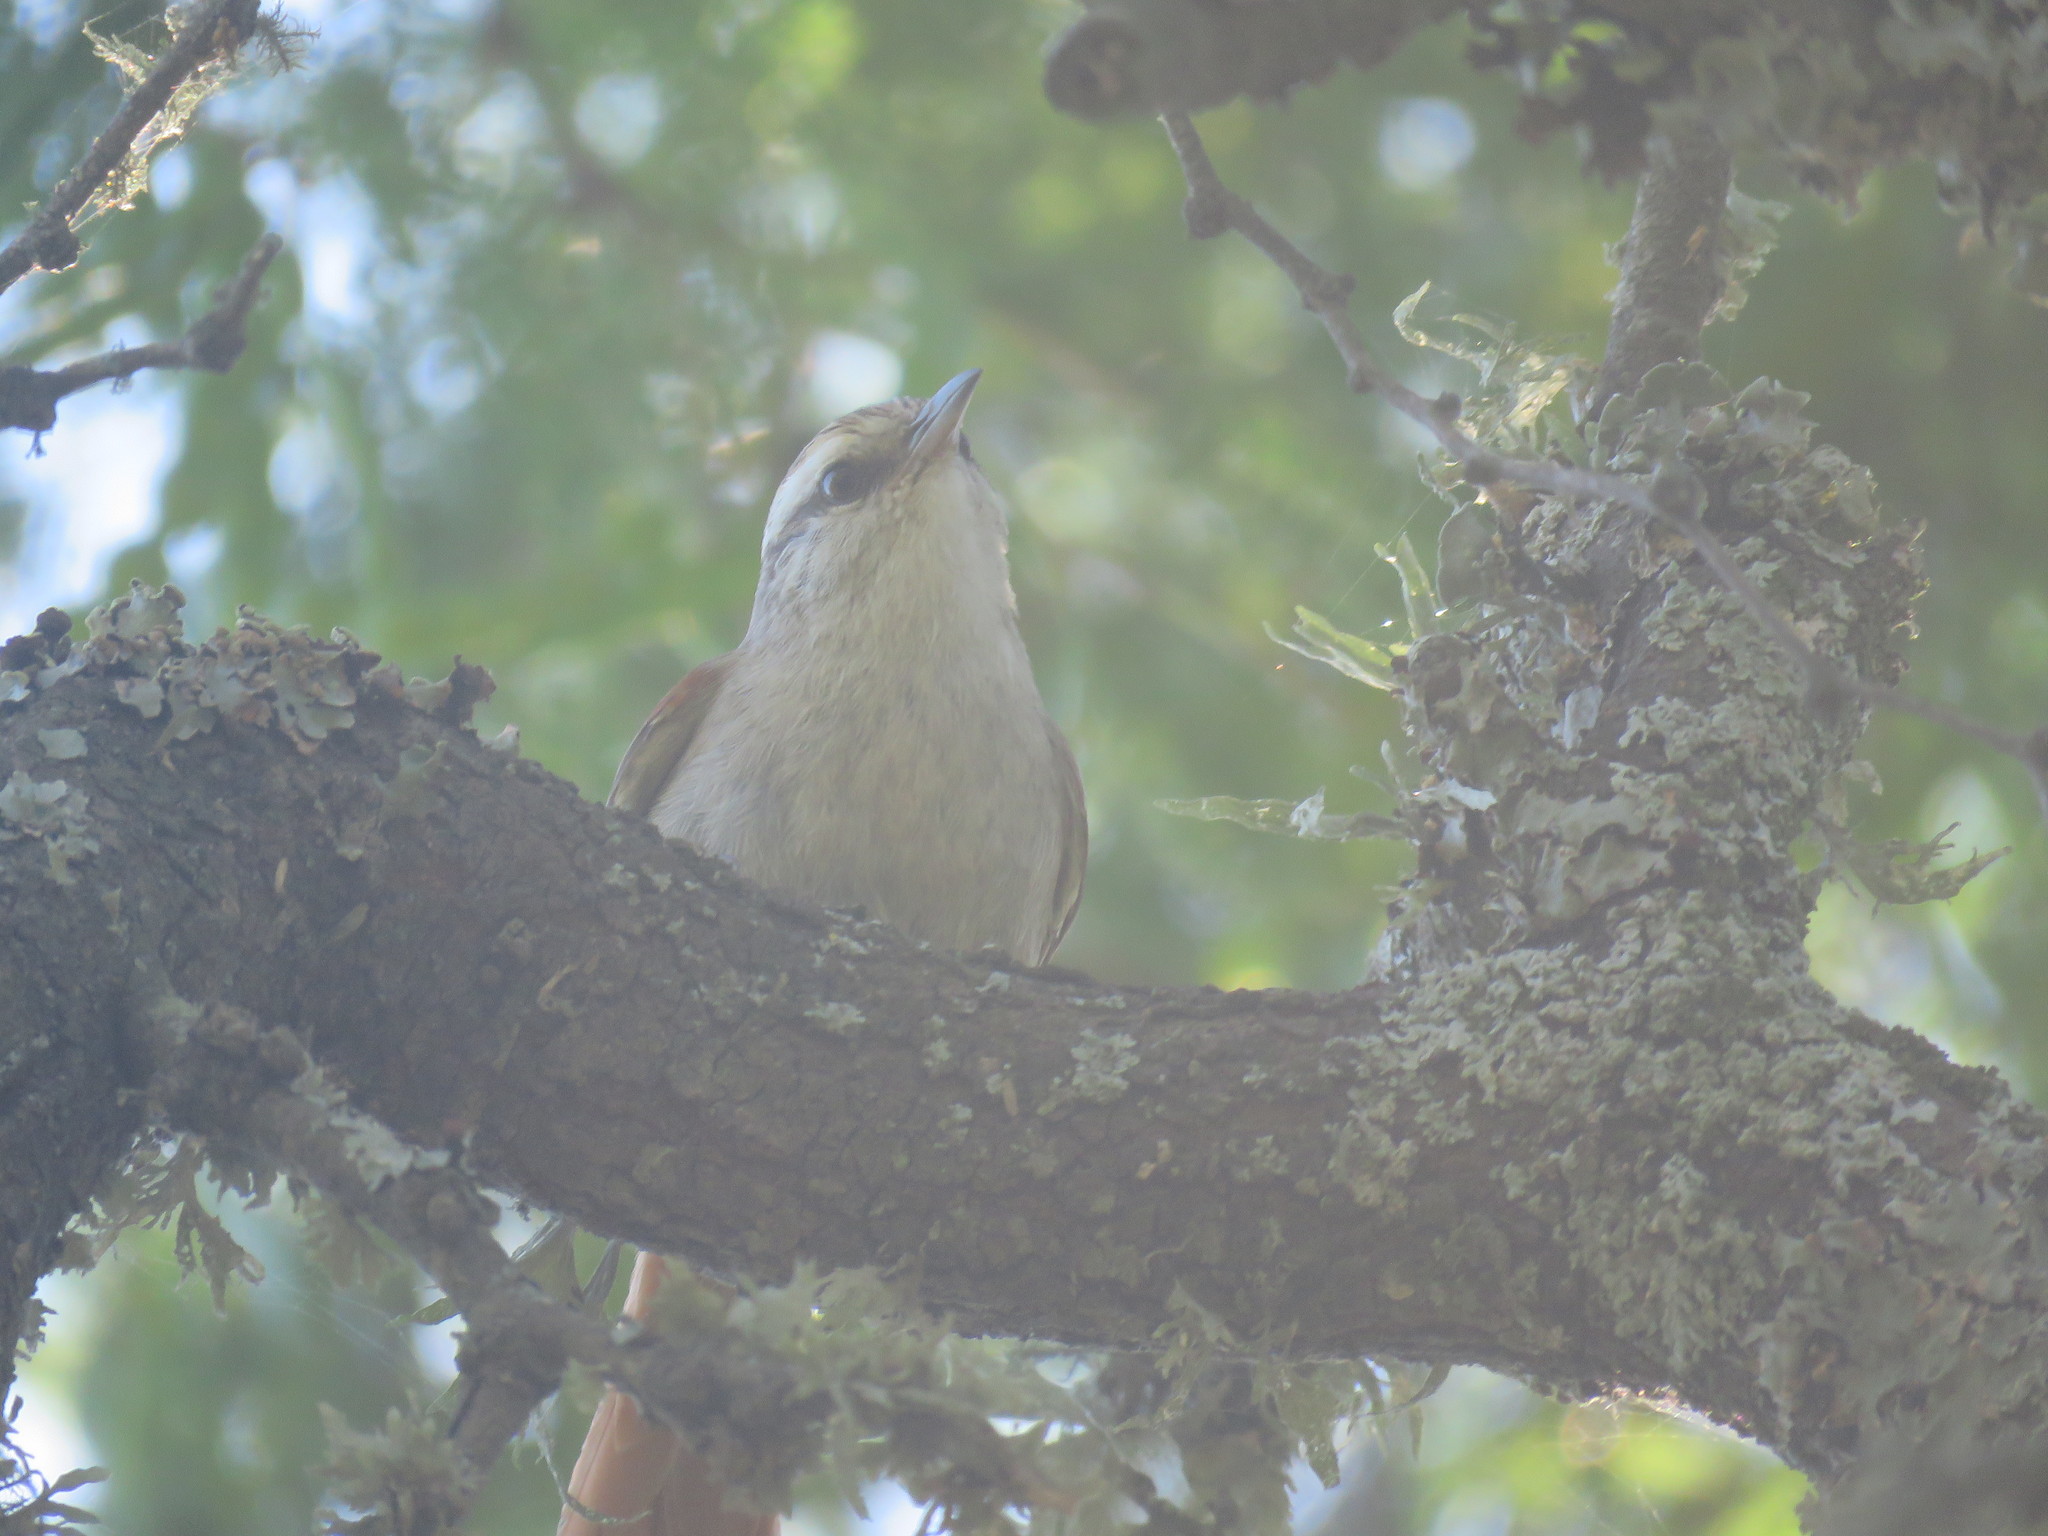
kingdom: Animalia
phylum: Chordata
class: Aves
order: Passeriformes
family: Furnariidae
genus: Cranioleuca
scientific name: Cranioleuca pyrrhophia
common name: Stripe-crowned spinetail
